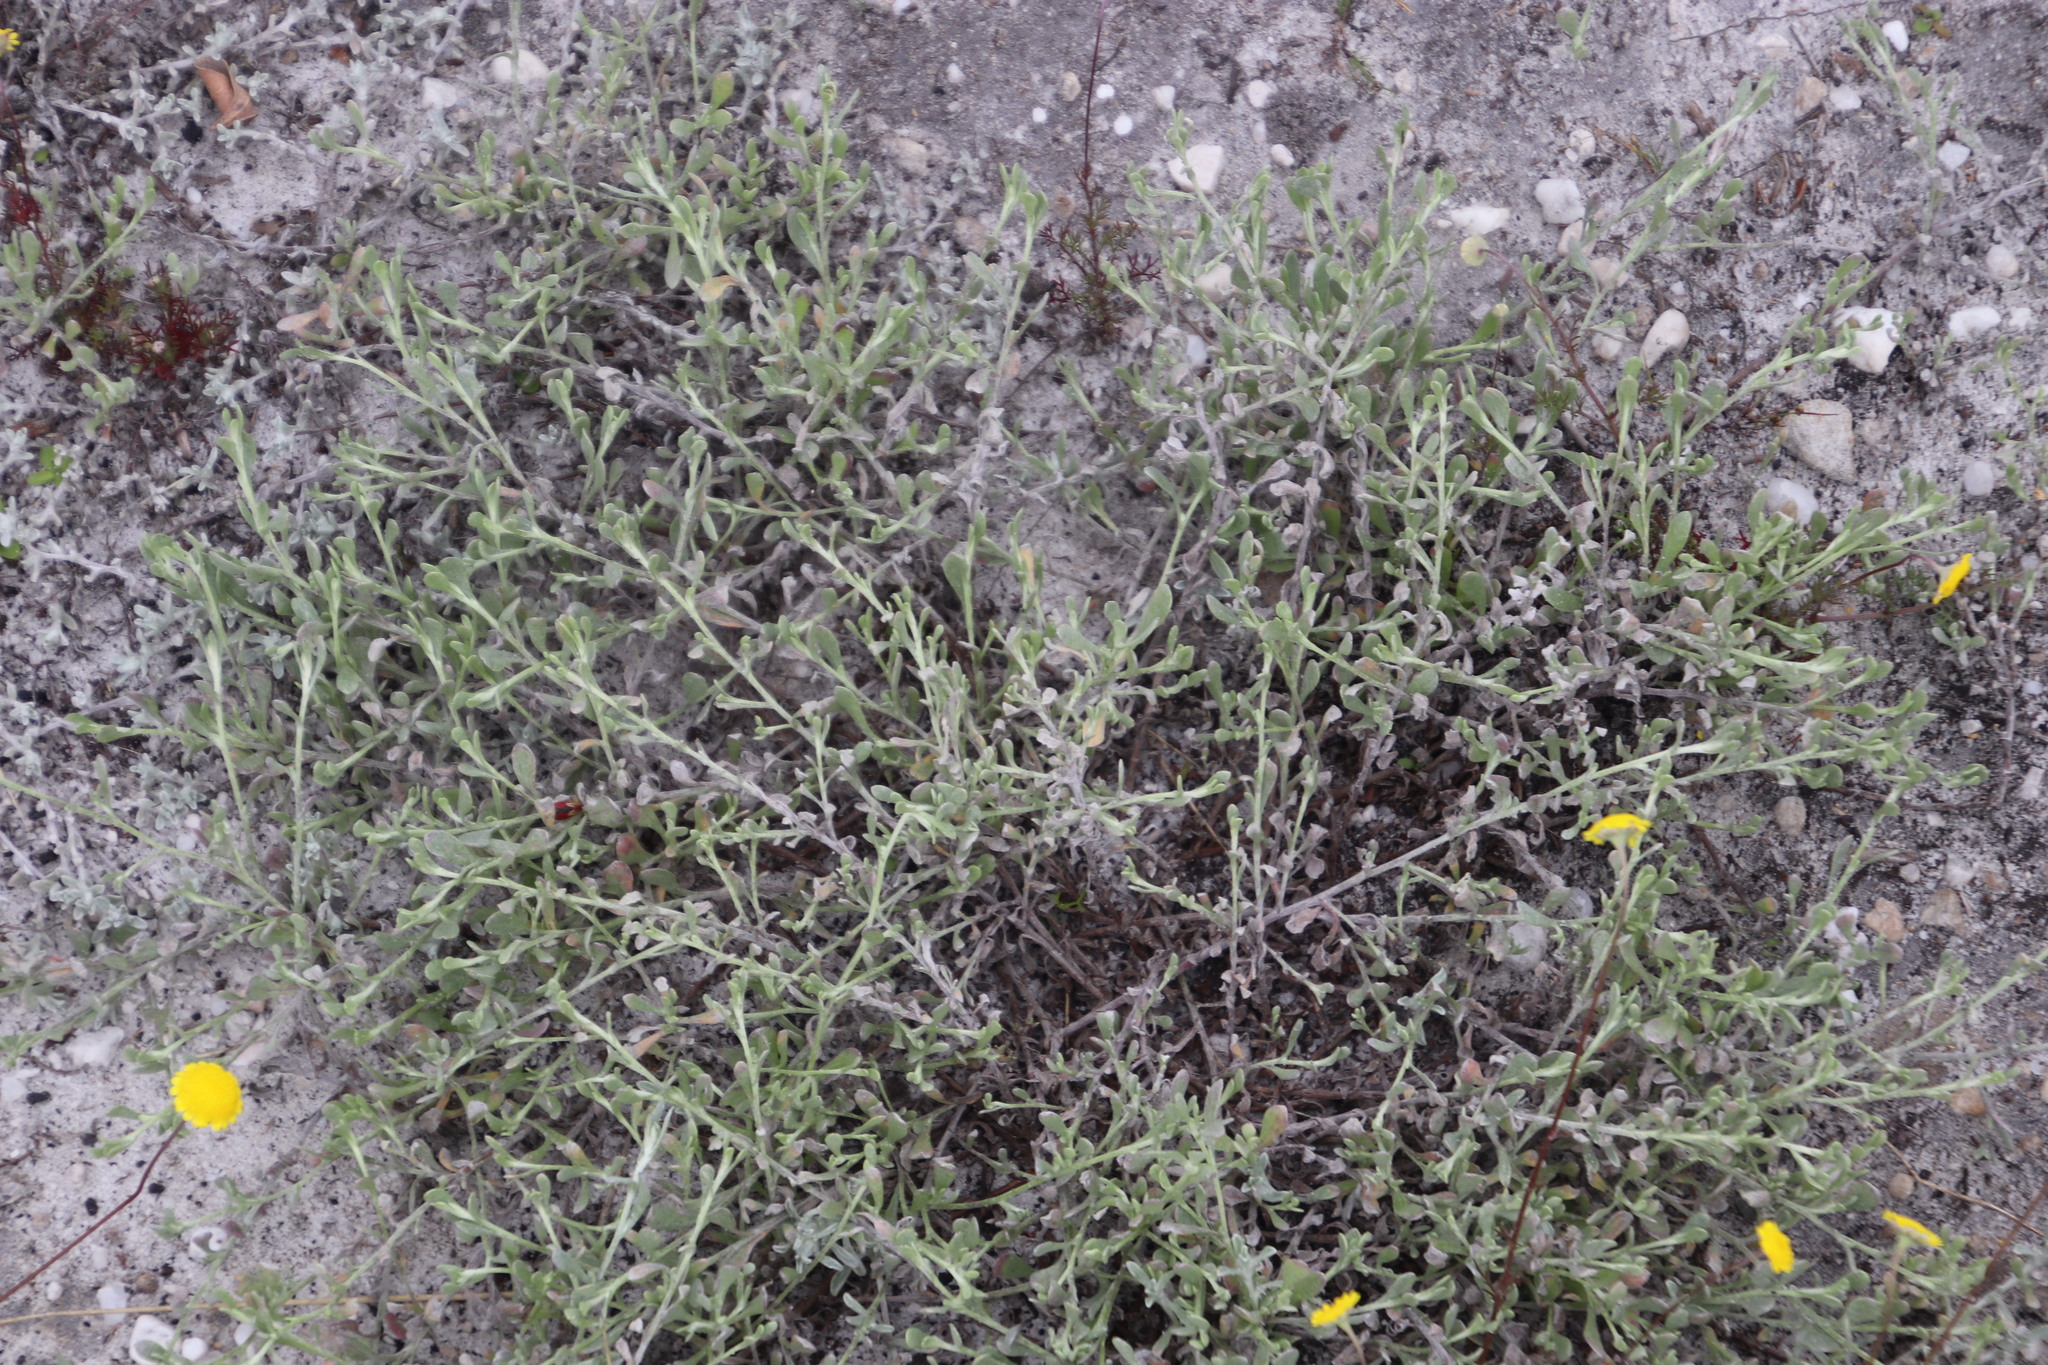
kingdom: Plantae
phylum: Tracheophyta
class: Magnoliopsida
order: Asterales
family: Asteraceae
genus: Helichrysum
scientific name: Helichrysum indicum
